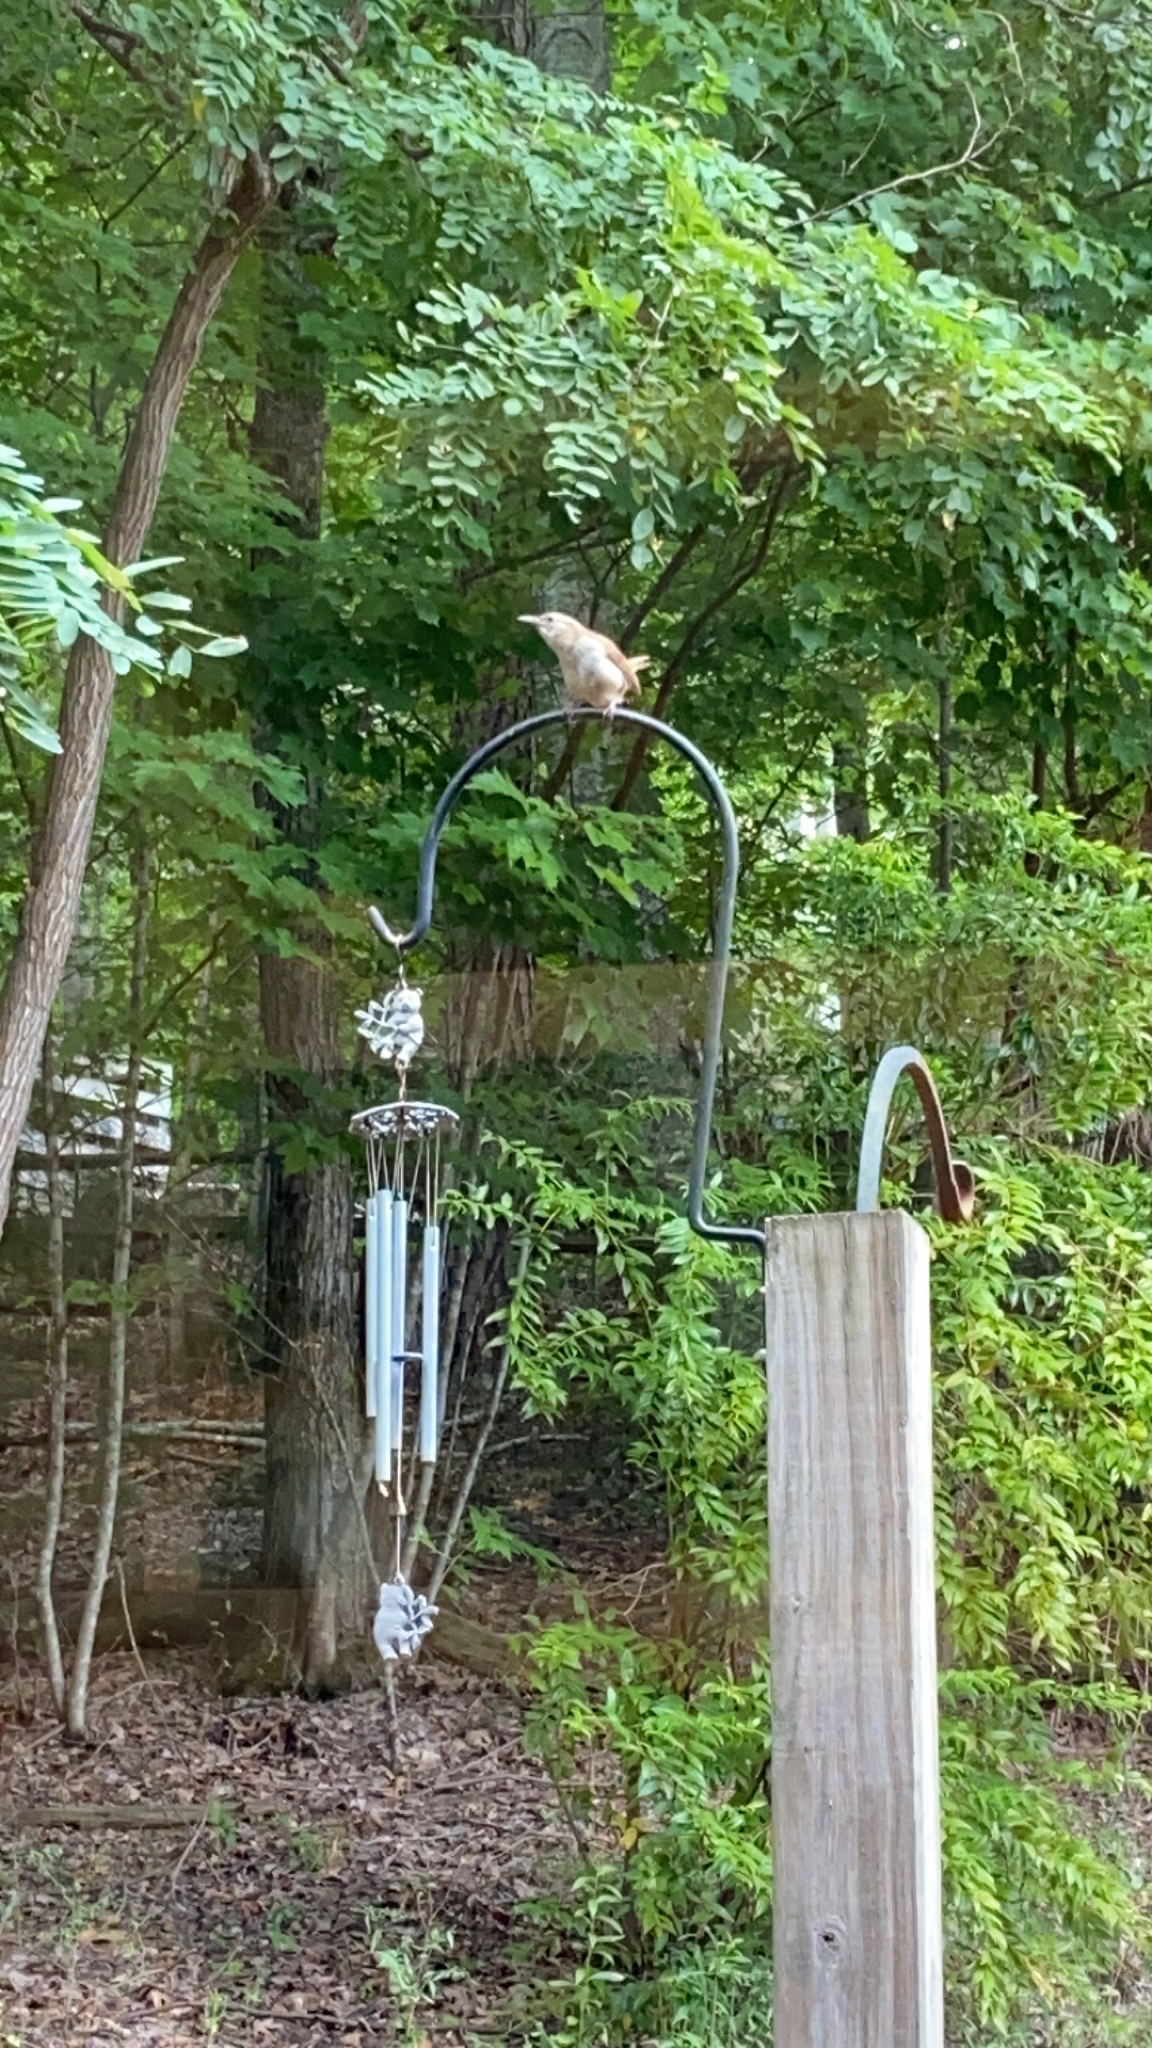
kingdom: Animalia
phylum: Chordata
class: Aves
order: Passeriformes
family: Troglodytidae
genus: Thryothorus
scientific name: Thryothorus ludovicianus
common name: Carolina wren
